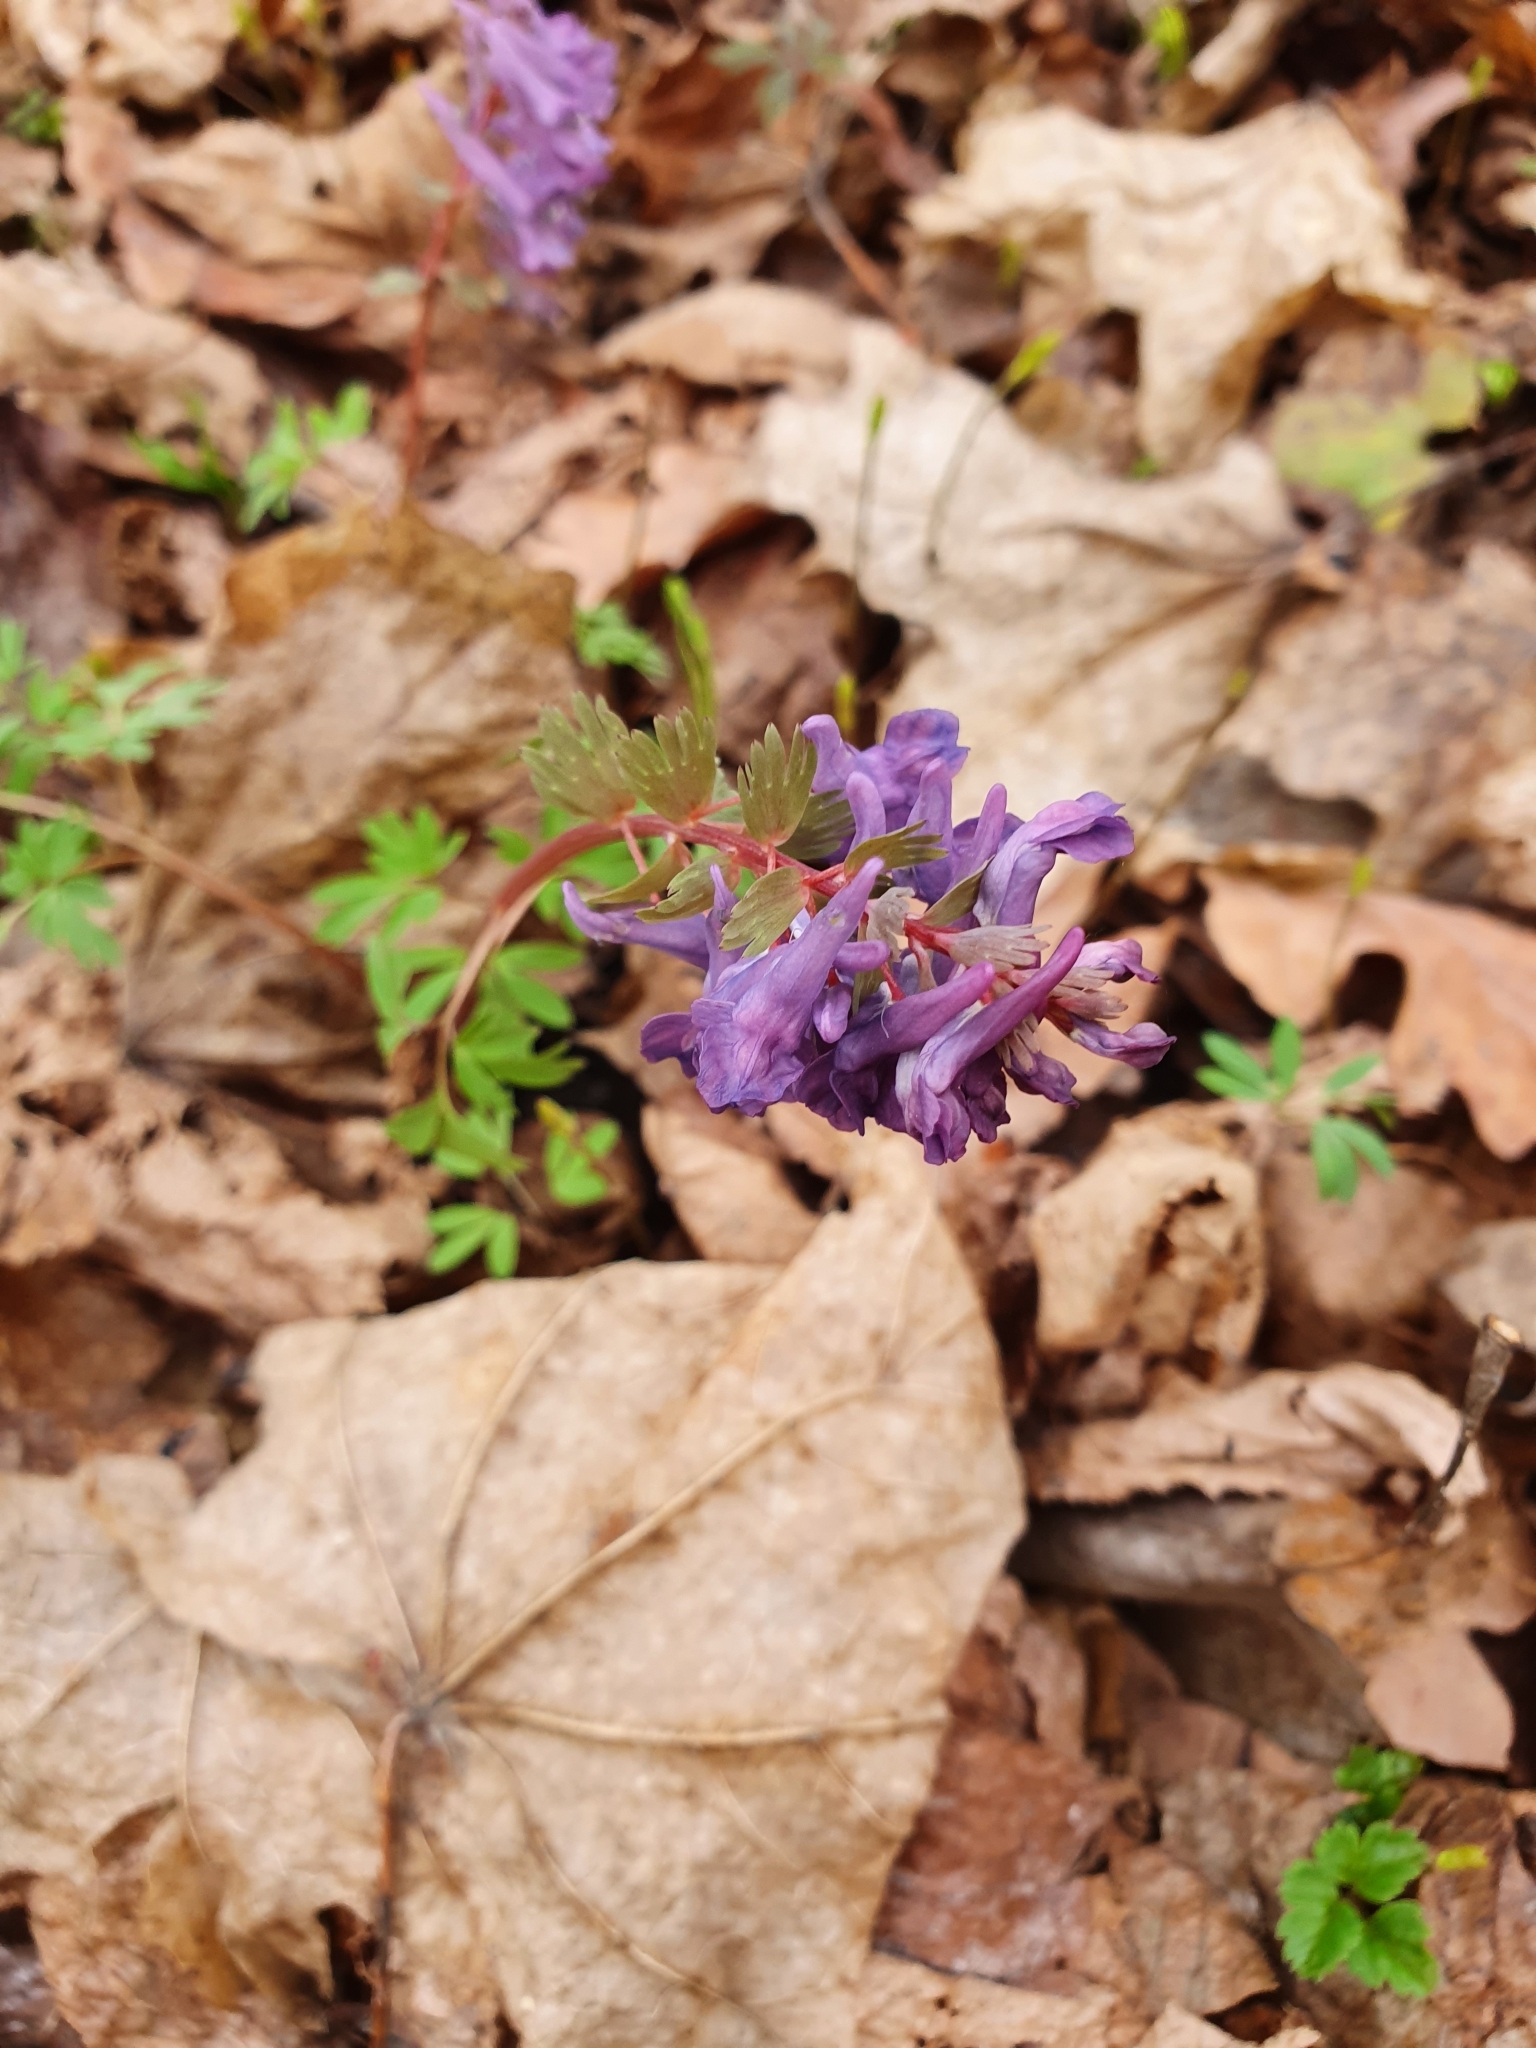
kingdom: Plantae
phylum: Tracheophyta
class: Magnoliopsida
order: Ranunculales
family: Papaveraceae
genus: Corydalis
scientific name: Corydalis solida
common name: Bird-in-a-bush
